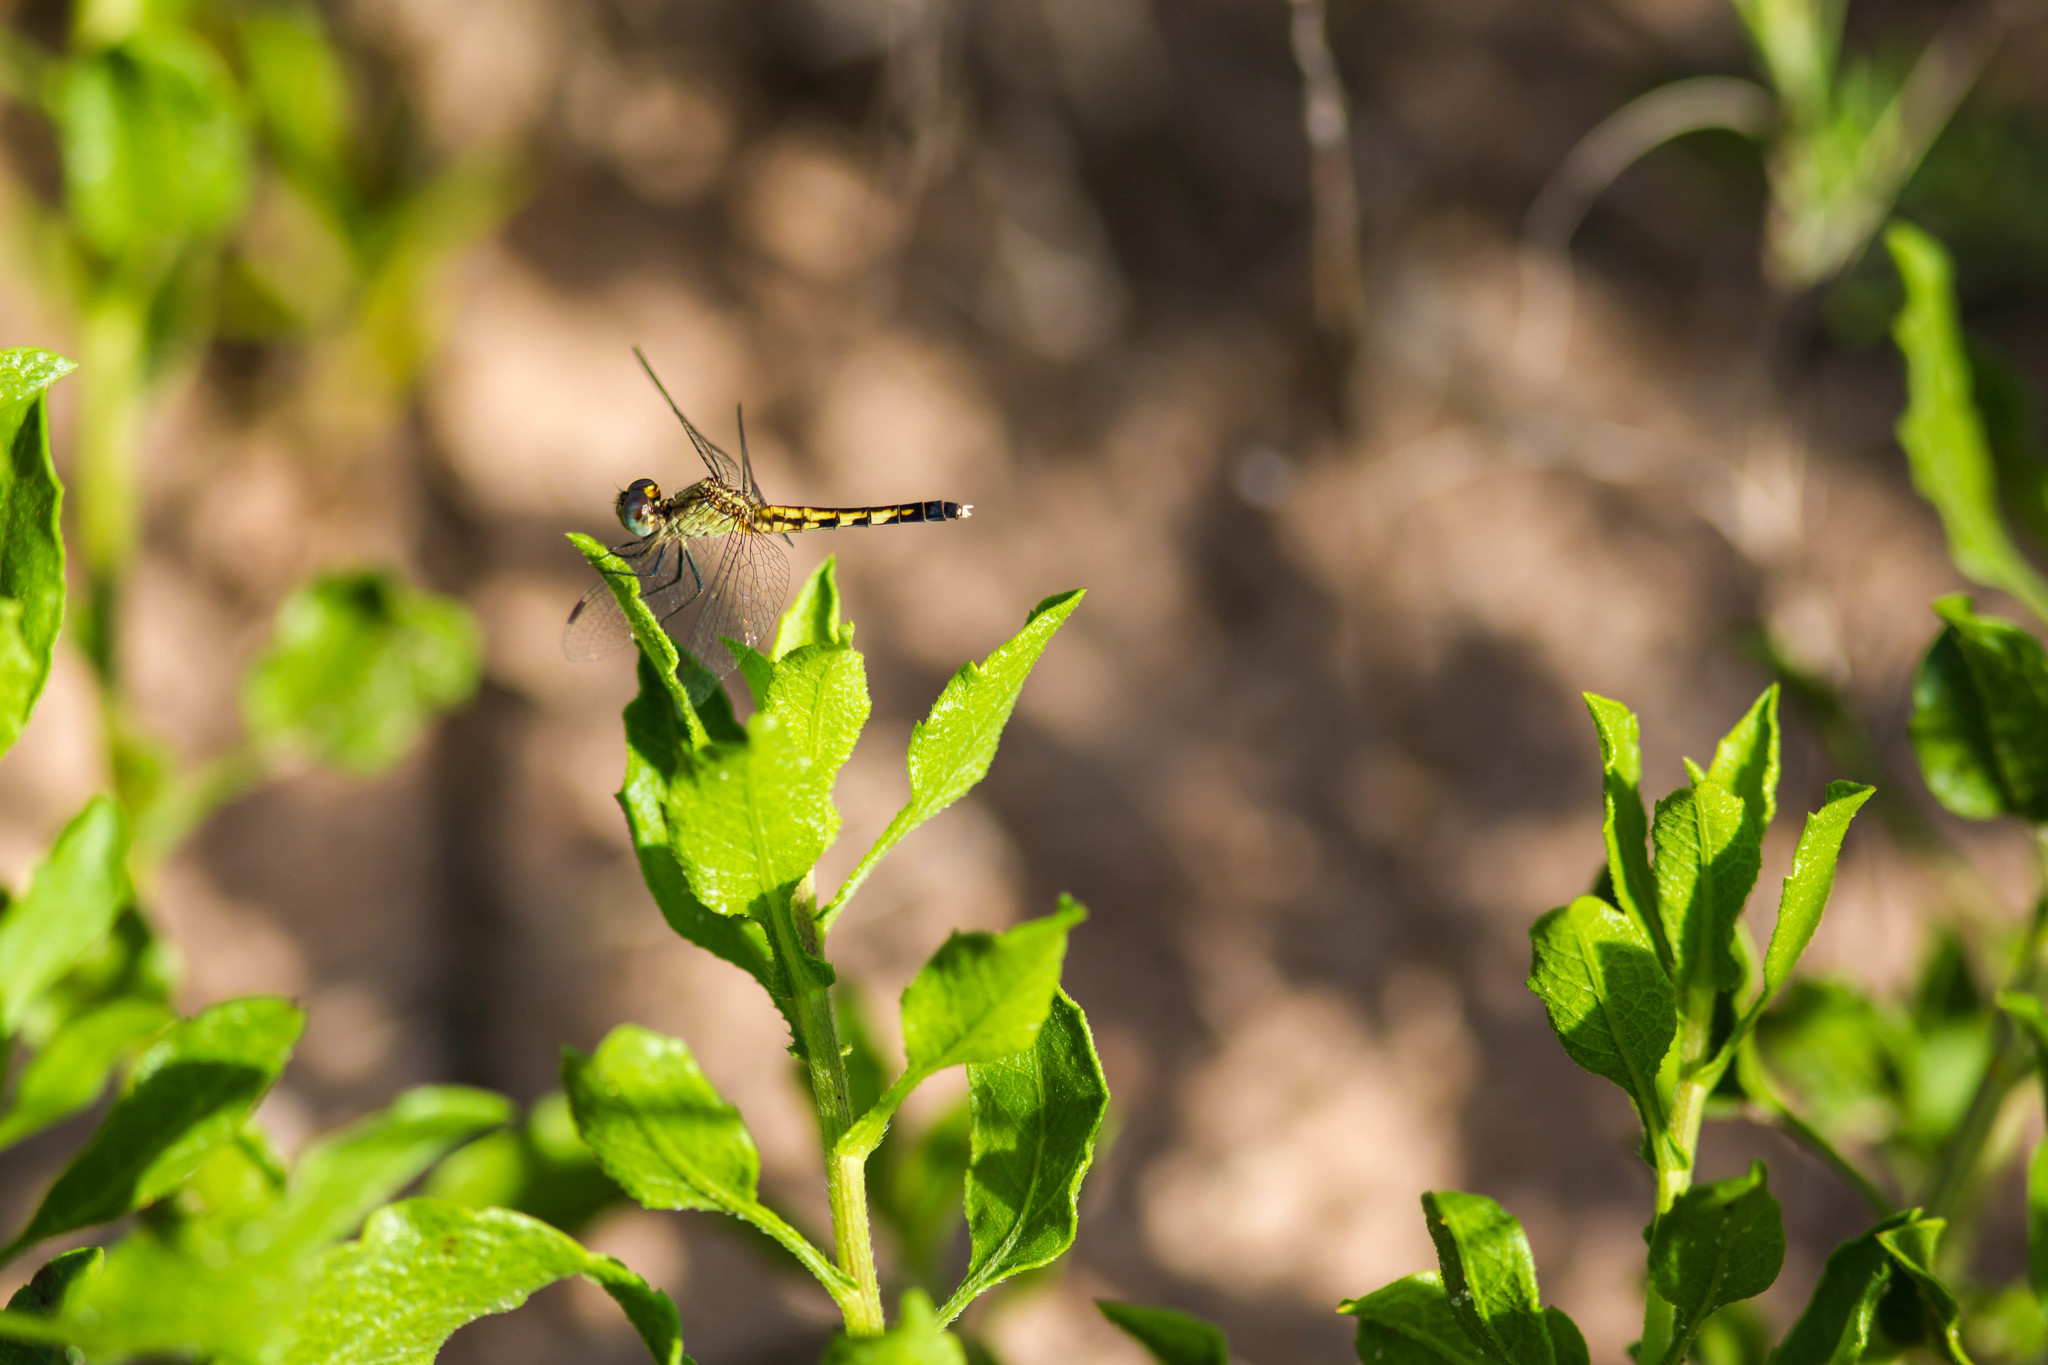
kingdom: Animalia
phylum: Arthropoda
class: Insecta
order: Odonata
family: Libellulidae
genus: Erythrodiplax
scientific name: Erythrodiplax minuscula
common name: Little blue dragonlet
